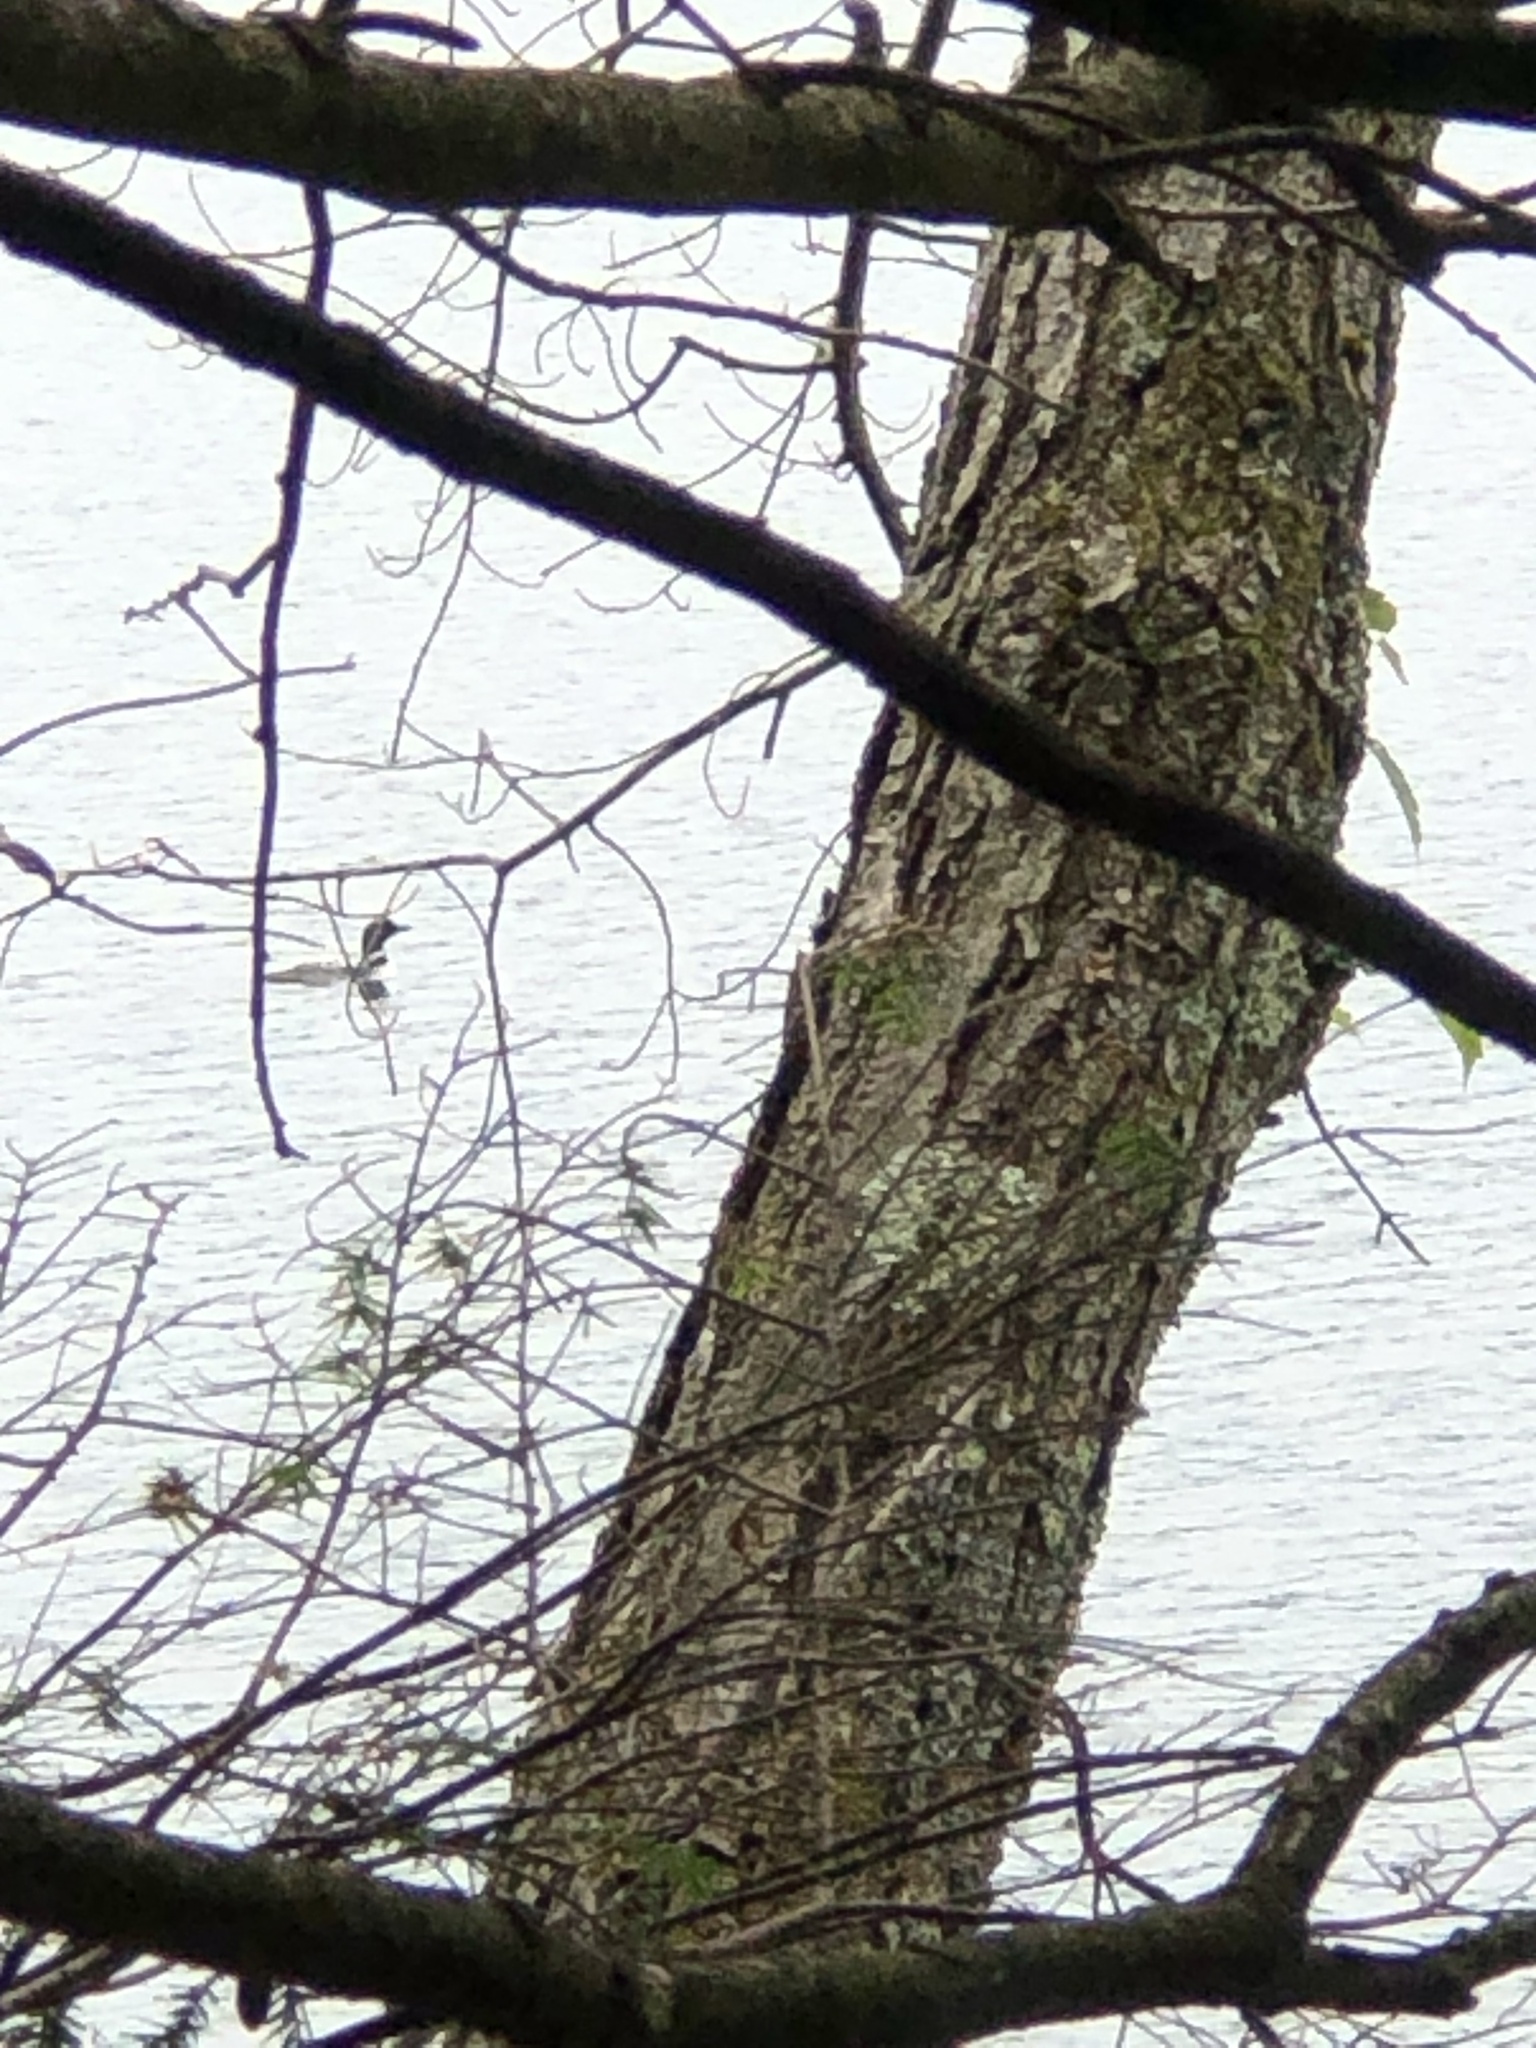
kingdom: Animalia
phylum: Chordata
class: Aves
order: Gaviiformes
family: Gaviidae
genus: Gavia
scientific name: Gavia immer
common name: Common loon
